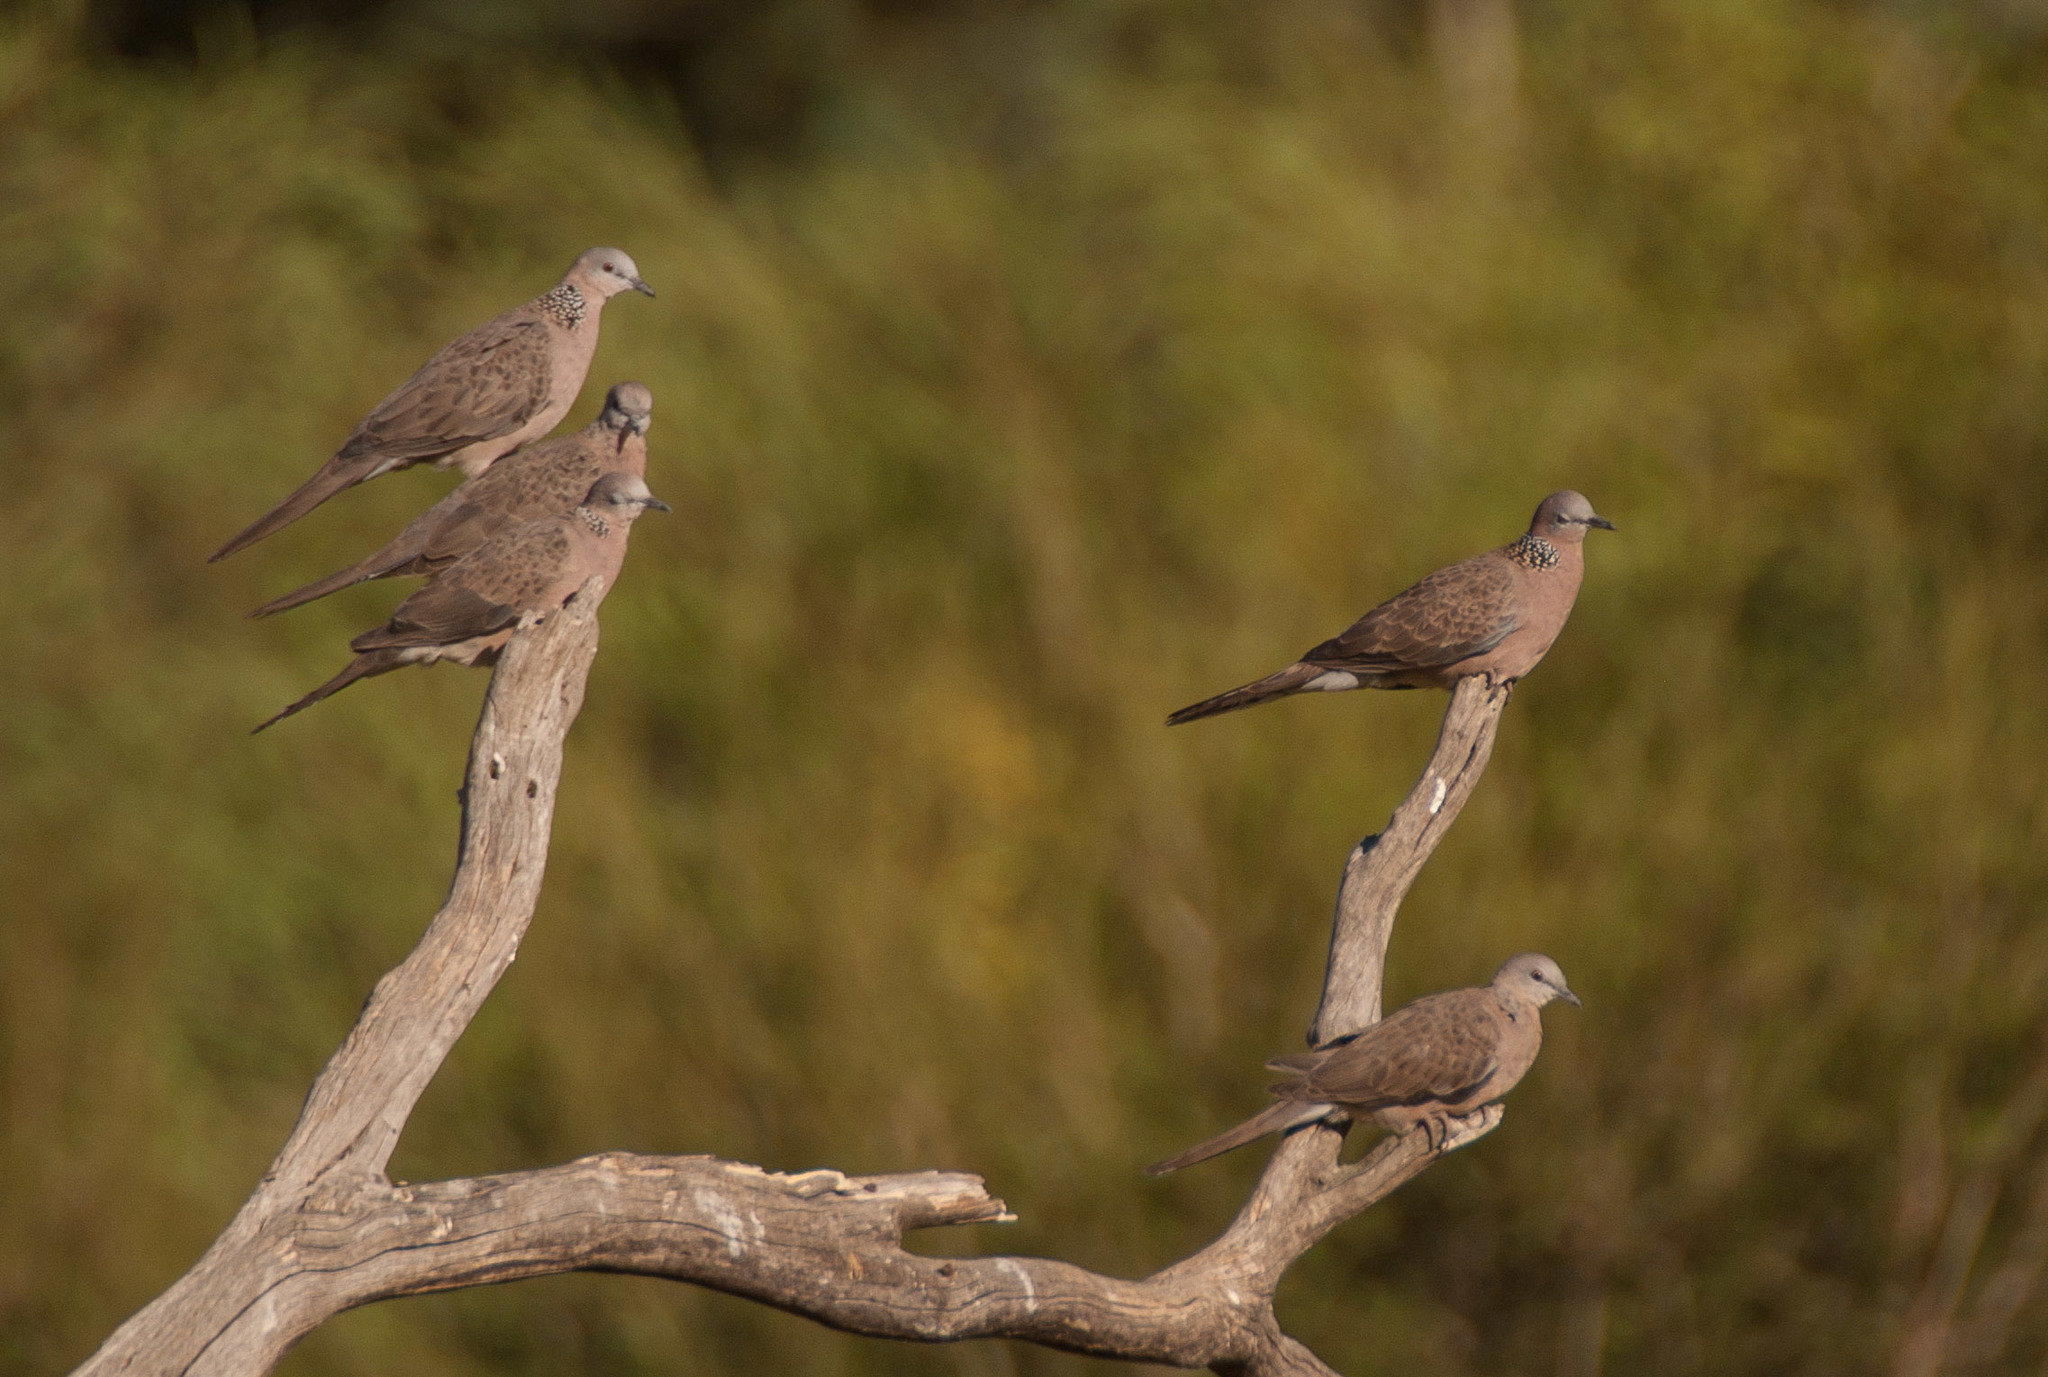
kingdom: Animalia
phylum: Chordata
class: Aves
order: Columbiformes
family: Columbidae
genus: Spilopelia
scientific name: Spilopelia chinensis
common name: Spotted dove
